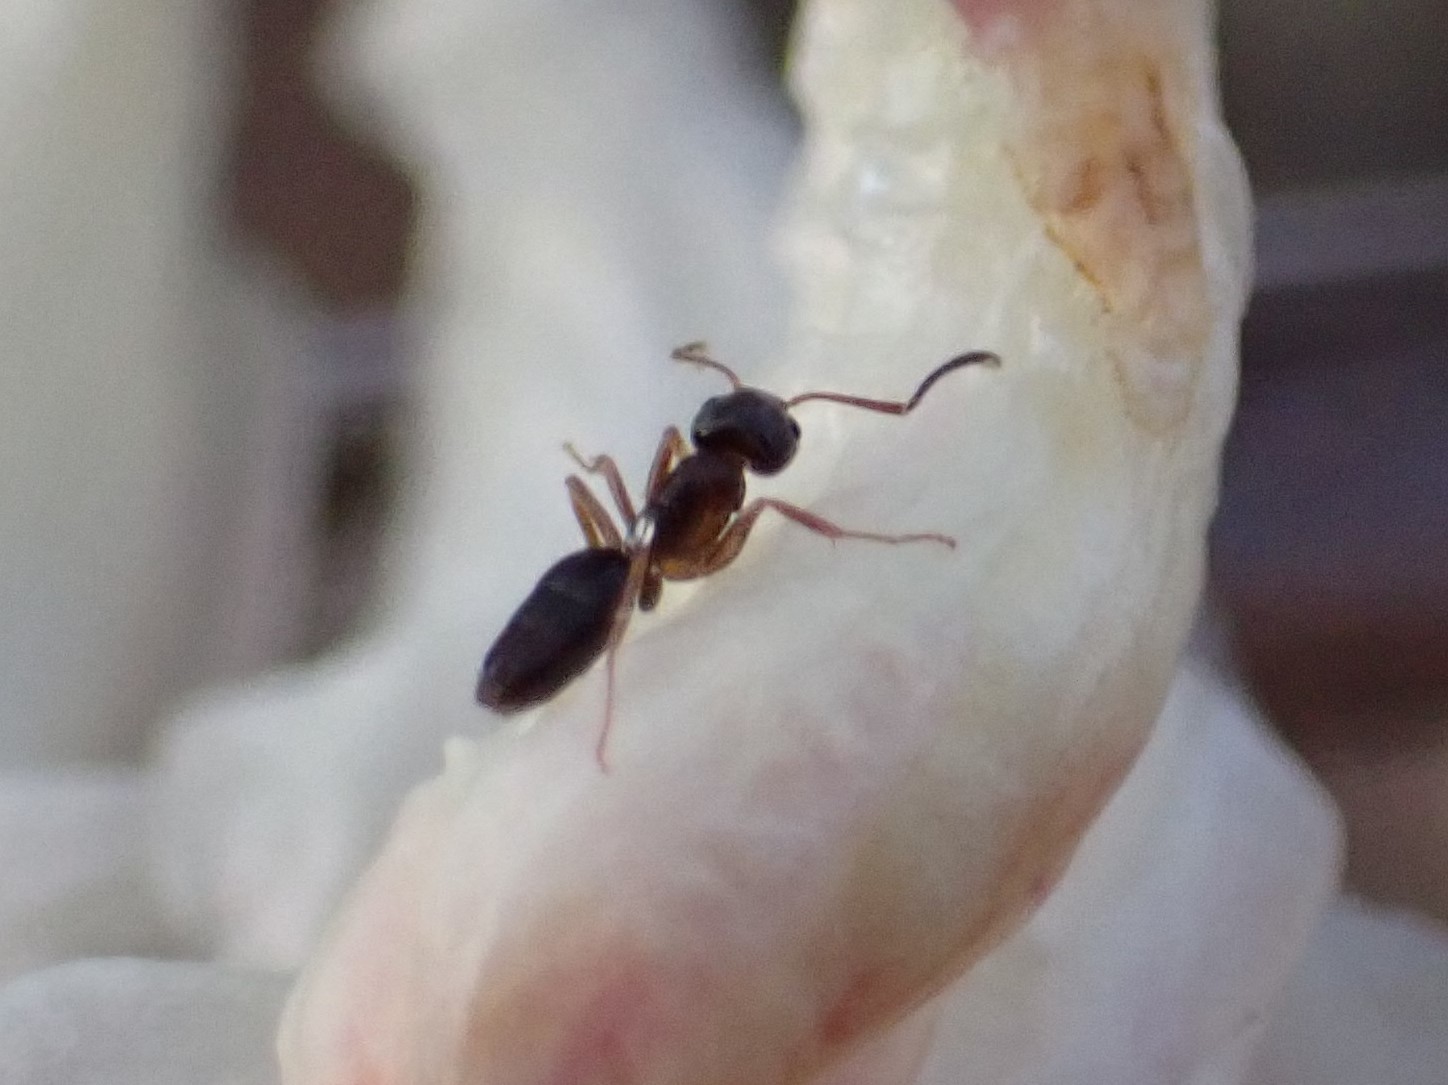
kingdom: Animalia
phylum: Arthropoda
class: Insecta
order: Hymenoptera
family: Formicidae
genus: Tapinoma
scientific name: Tapinoma sessile
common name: Odorous house ant
